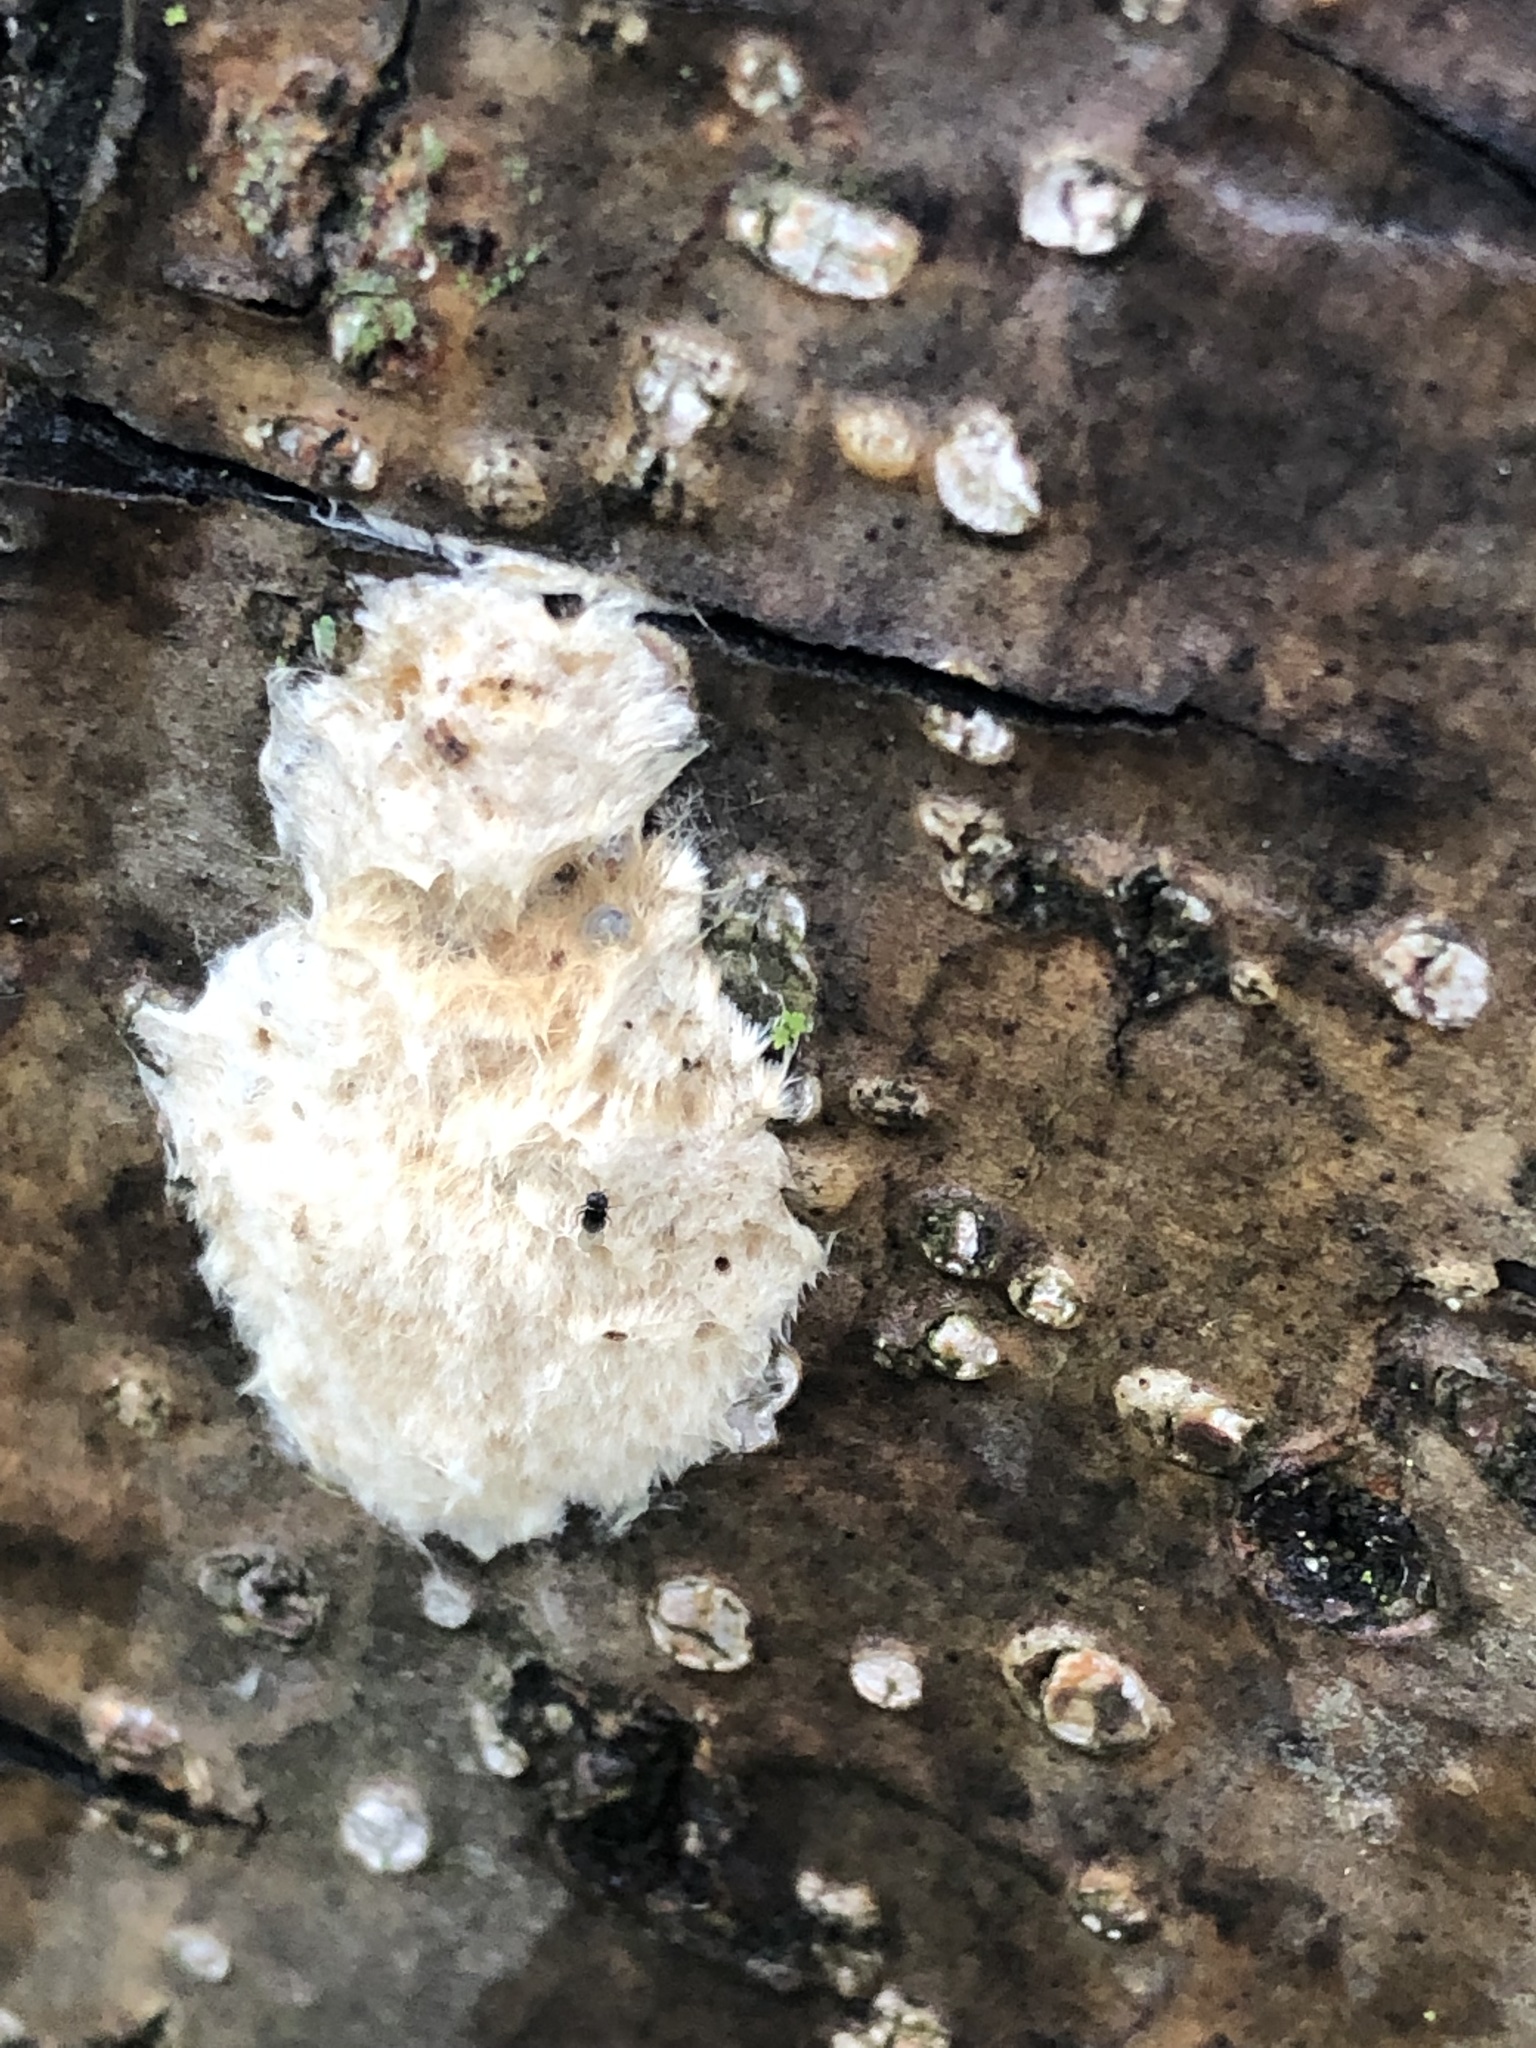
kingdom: Animalia
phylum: Arthropoda
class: Insecta
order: Lepidoptera
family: Erebidae
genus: Lymantria
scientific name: Lymantria dispar
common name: Gypsy moth
